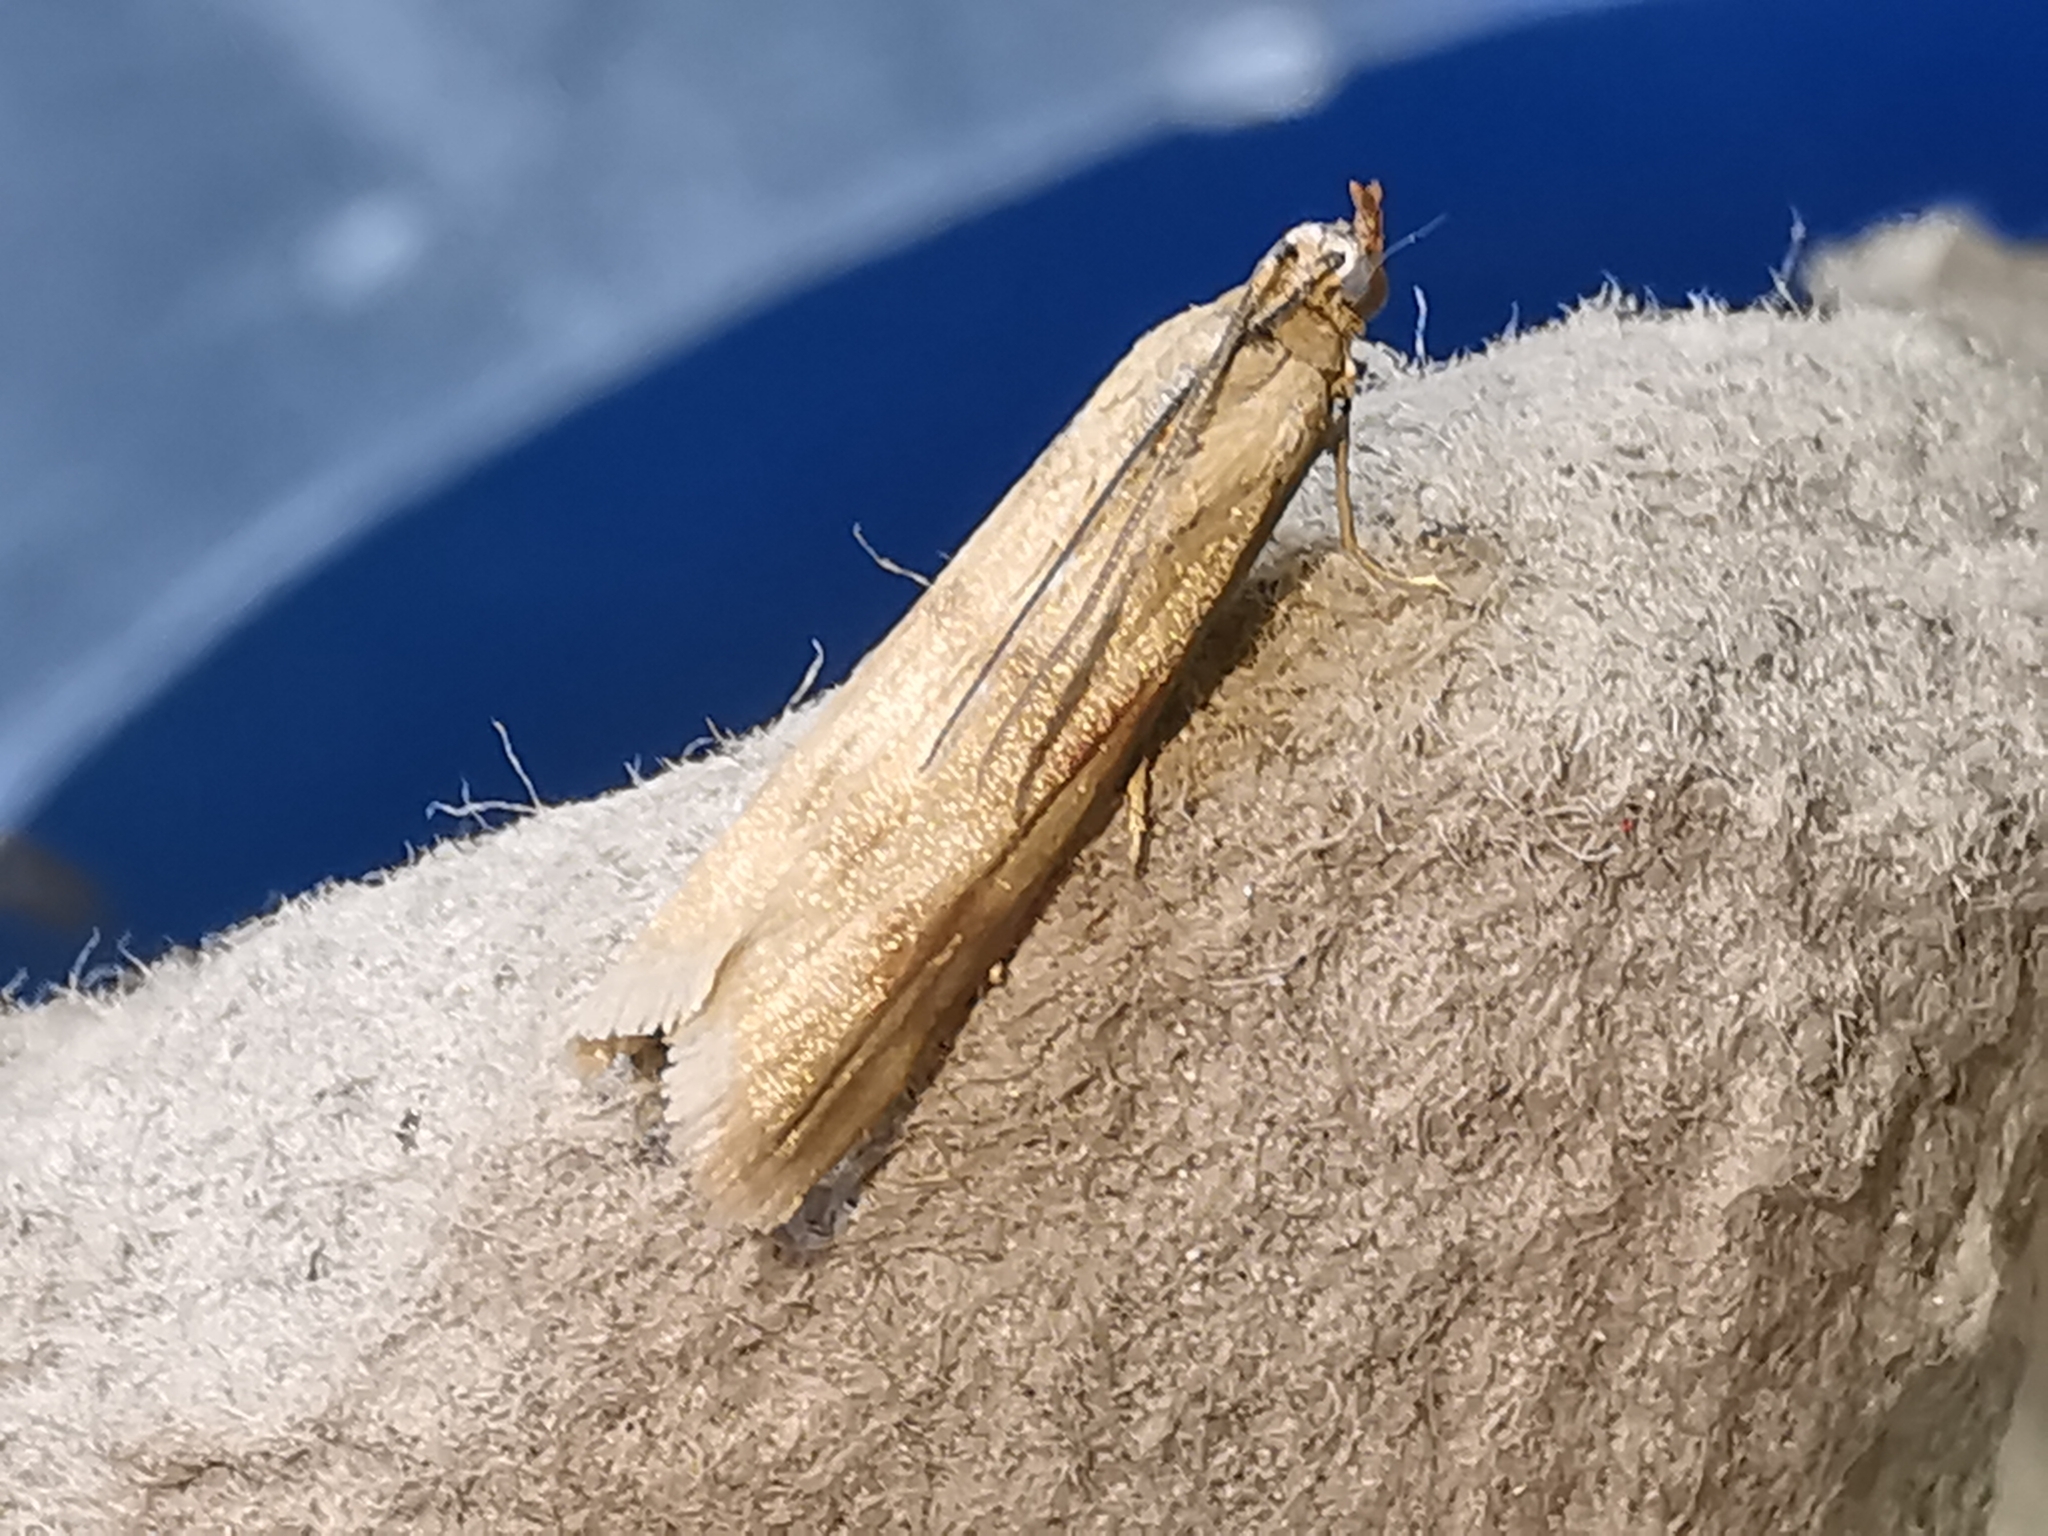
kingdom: Animalia
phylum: Arthropoda
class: Insecta
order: Lepidoptera
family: Pyralidae
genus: Homoeosoma
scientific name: Homoeosoma sinuella
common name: Twin-barred knot-horn
